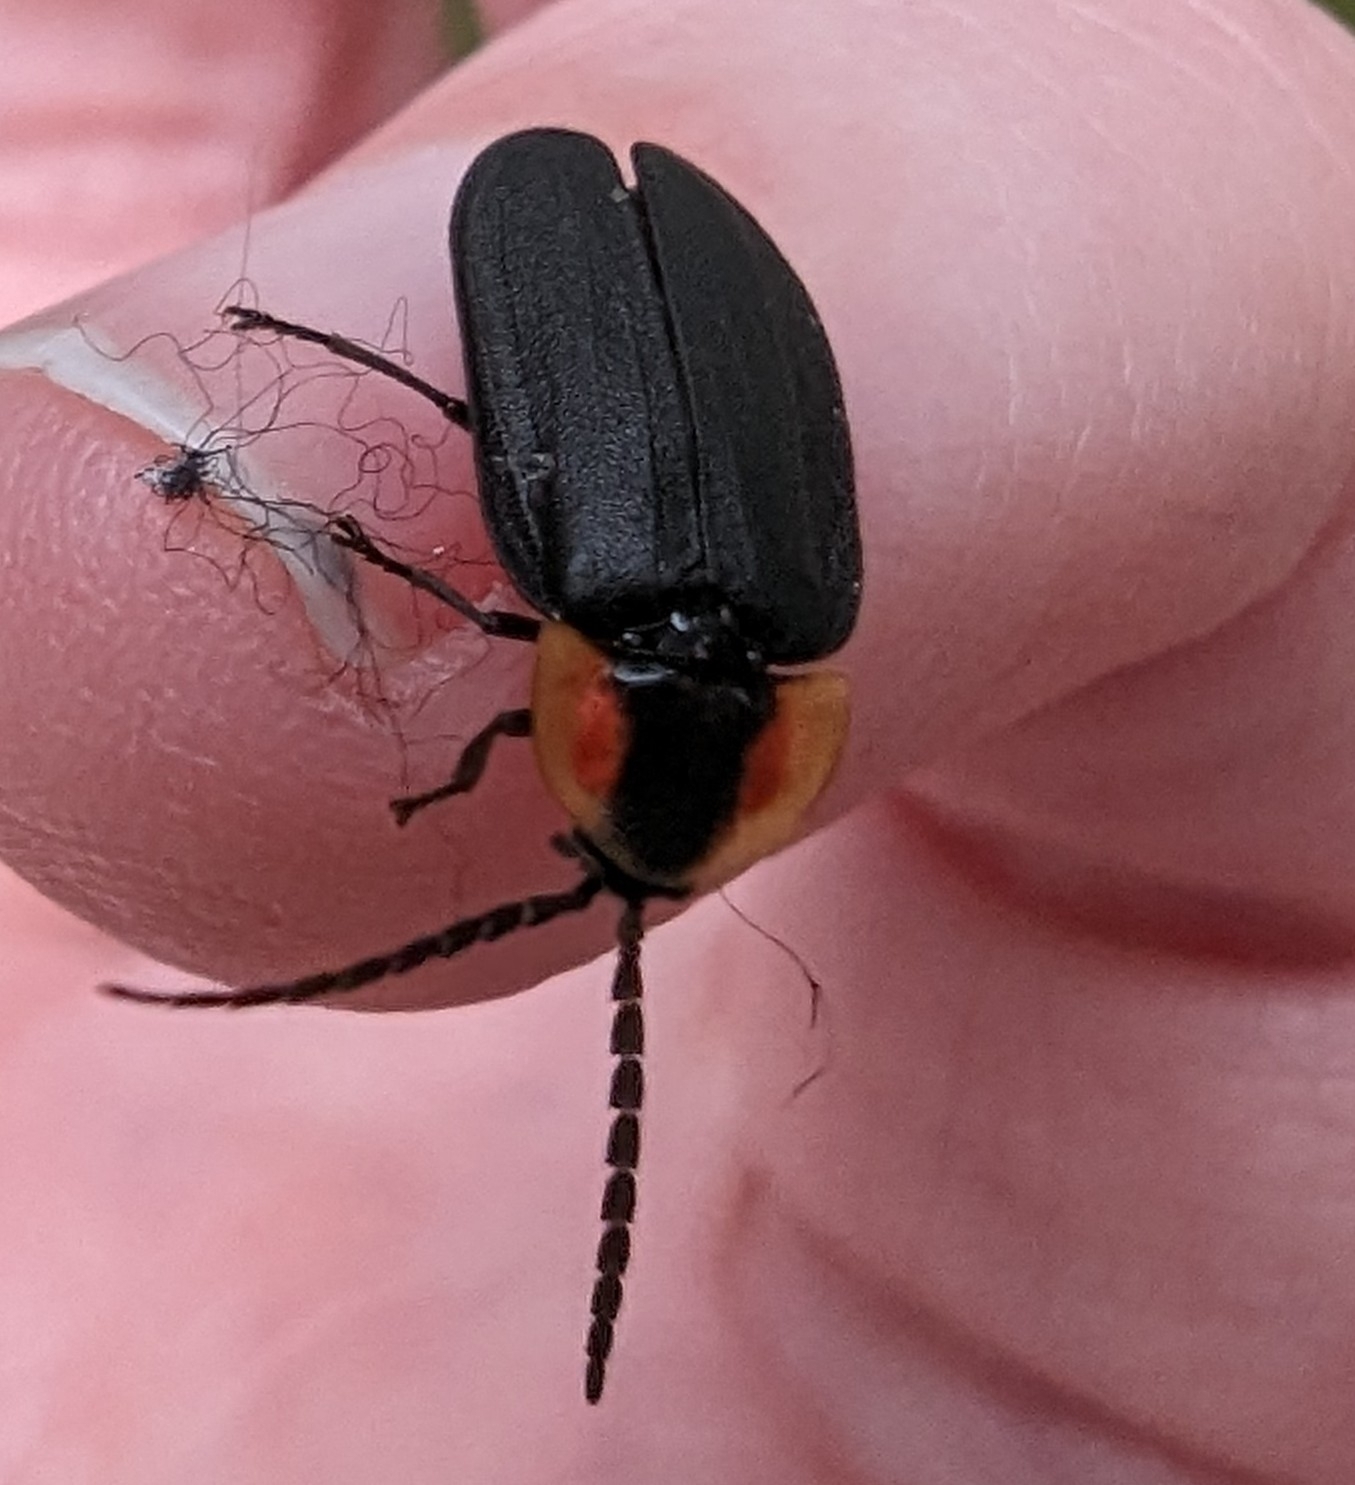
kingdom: Animalia
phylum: Arthropoda
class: Insecta
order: Coleoptera
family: Lampyridae
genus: Lucidota
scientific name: Lucidota atra
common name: Black firefly
